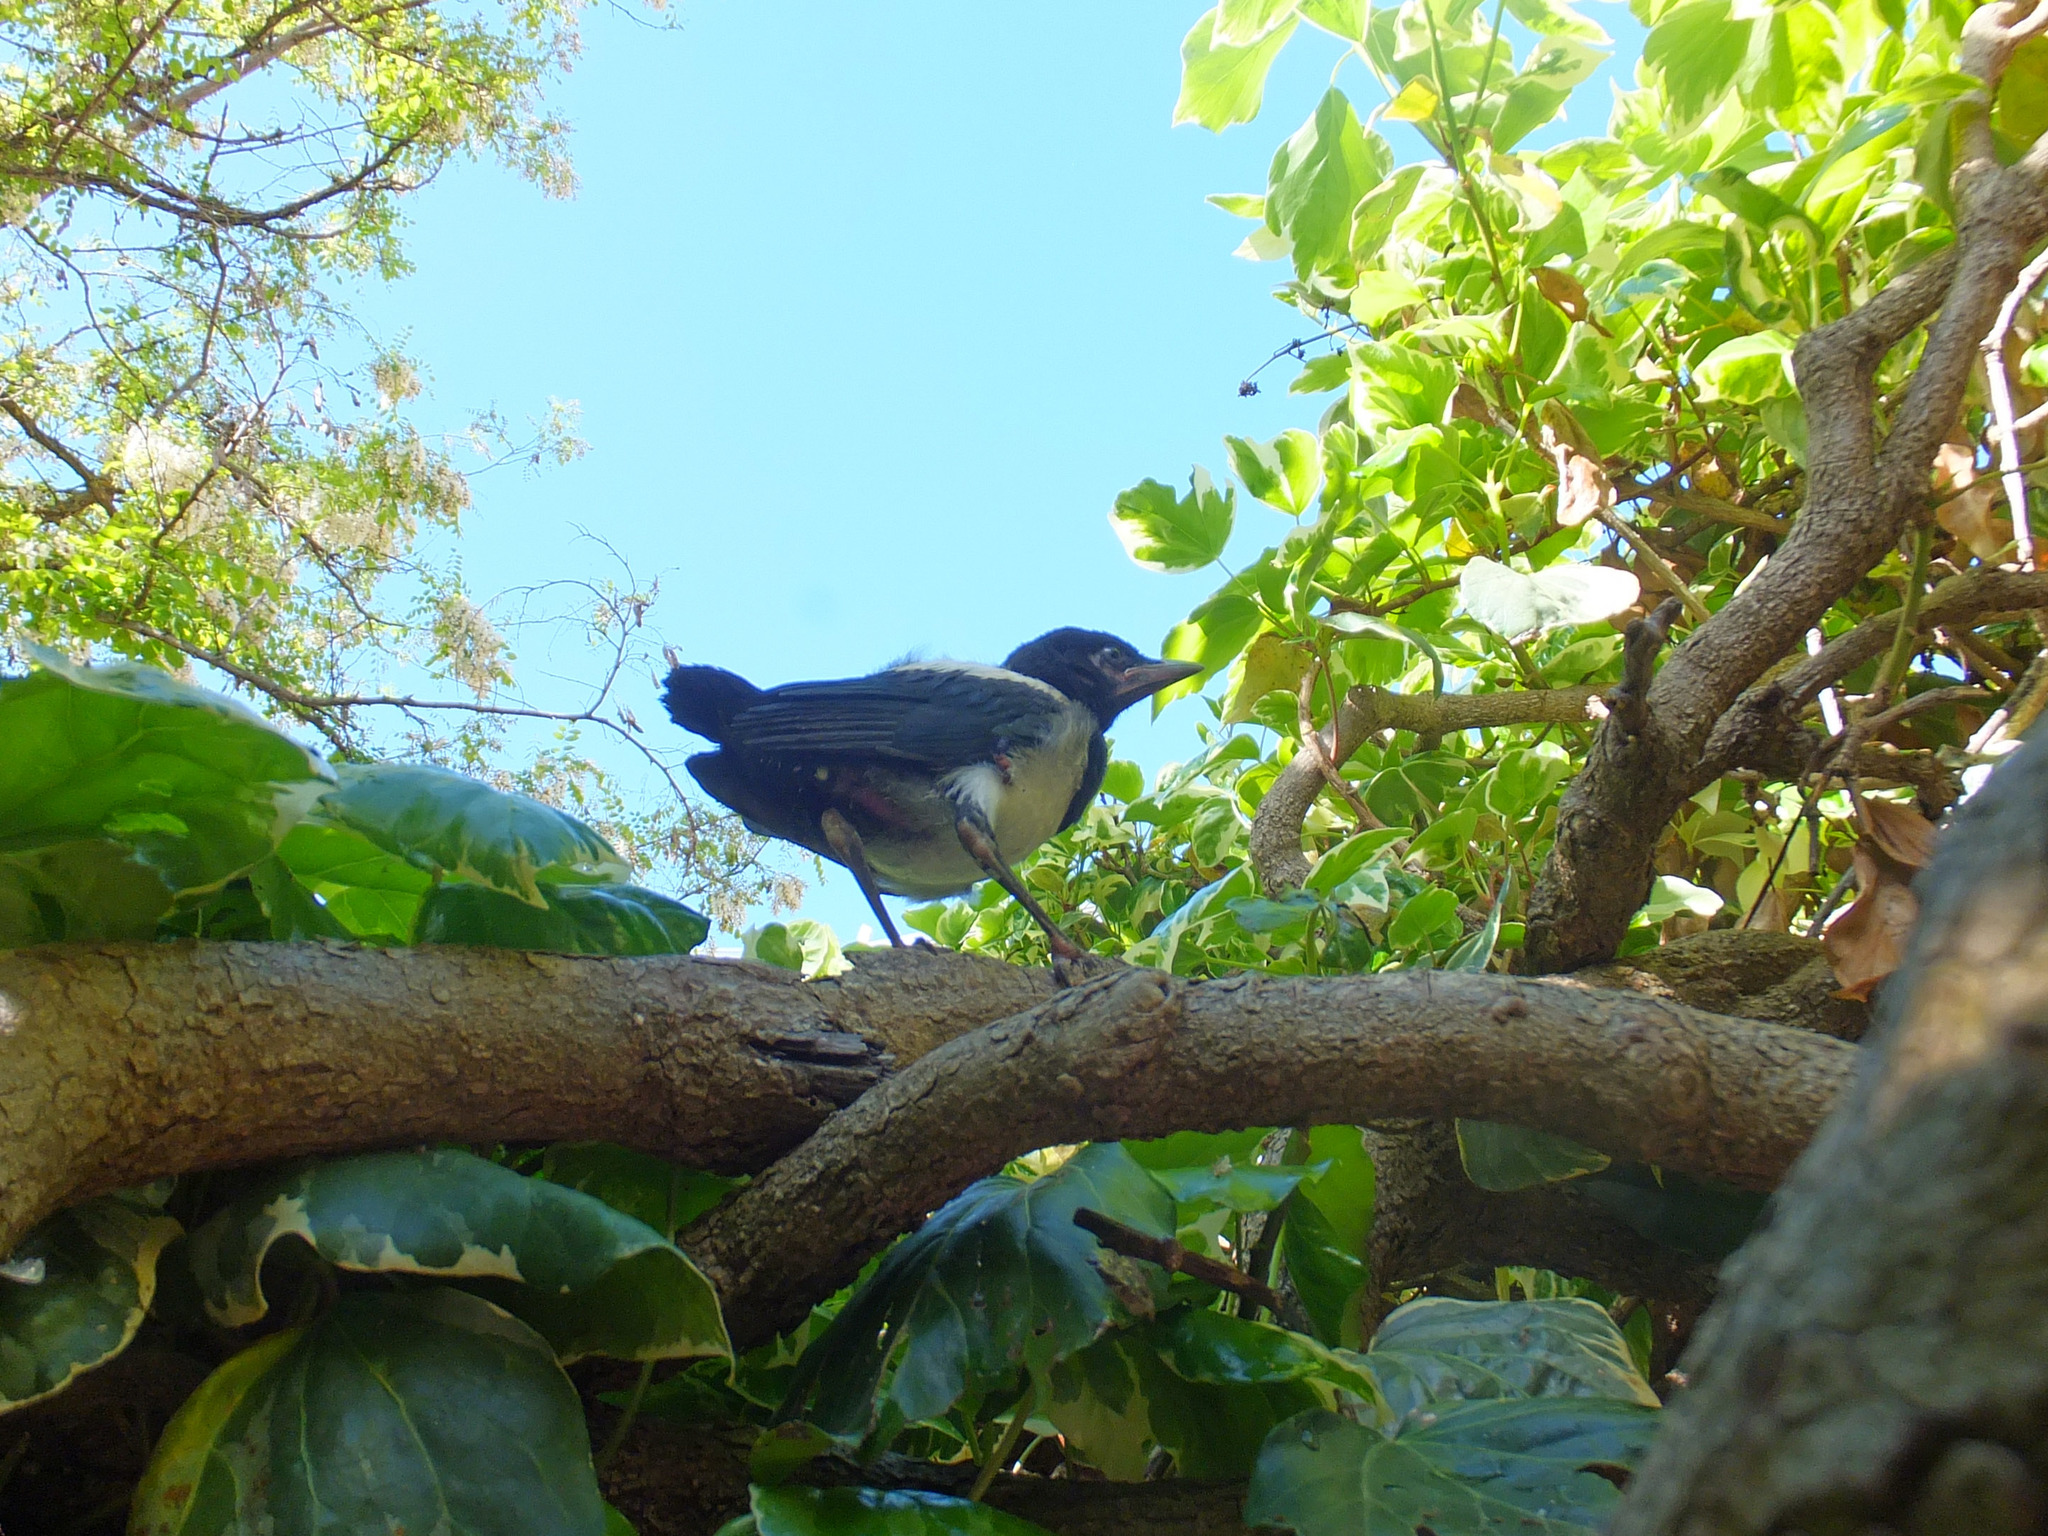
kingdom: Animalia
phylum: Chordata
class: Aves
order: Passeriformes
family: Corvidae
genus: Corvus
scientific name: Corvus cornix
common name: Hooded crow
